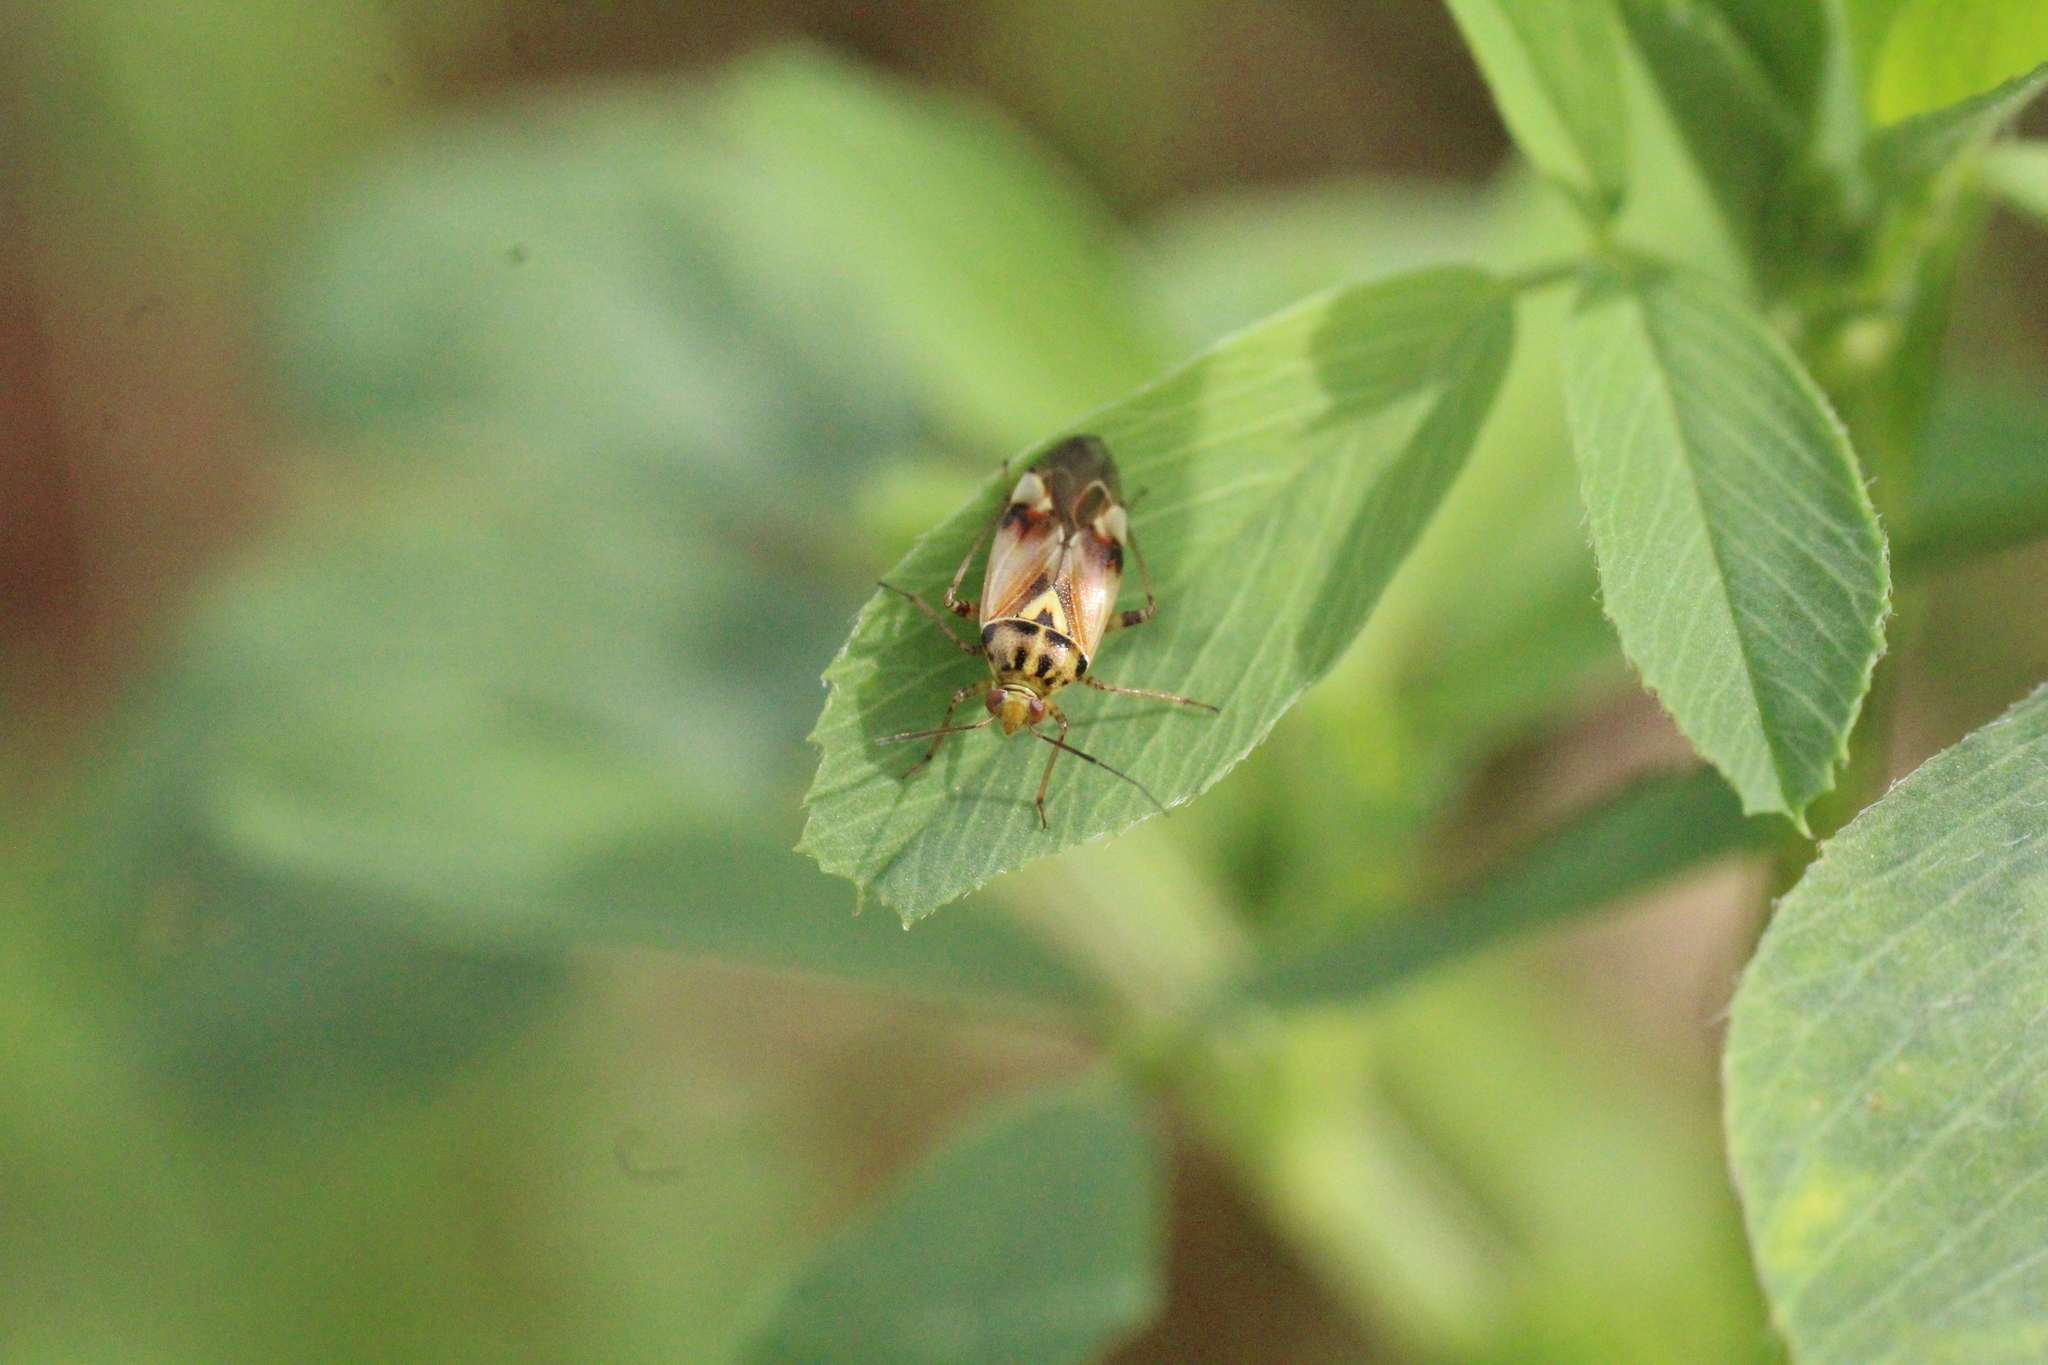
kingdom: Animalia
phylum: Arthropoda
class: Insecta
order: Hemiptera
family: Miridae
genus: Lygus
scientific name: Lygus pratensis
